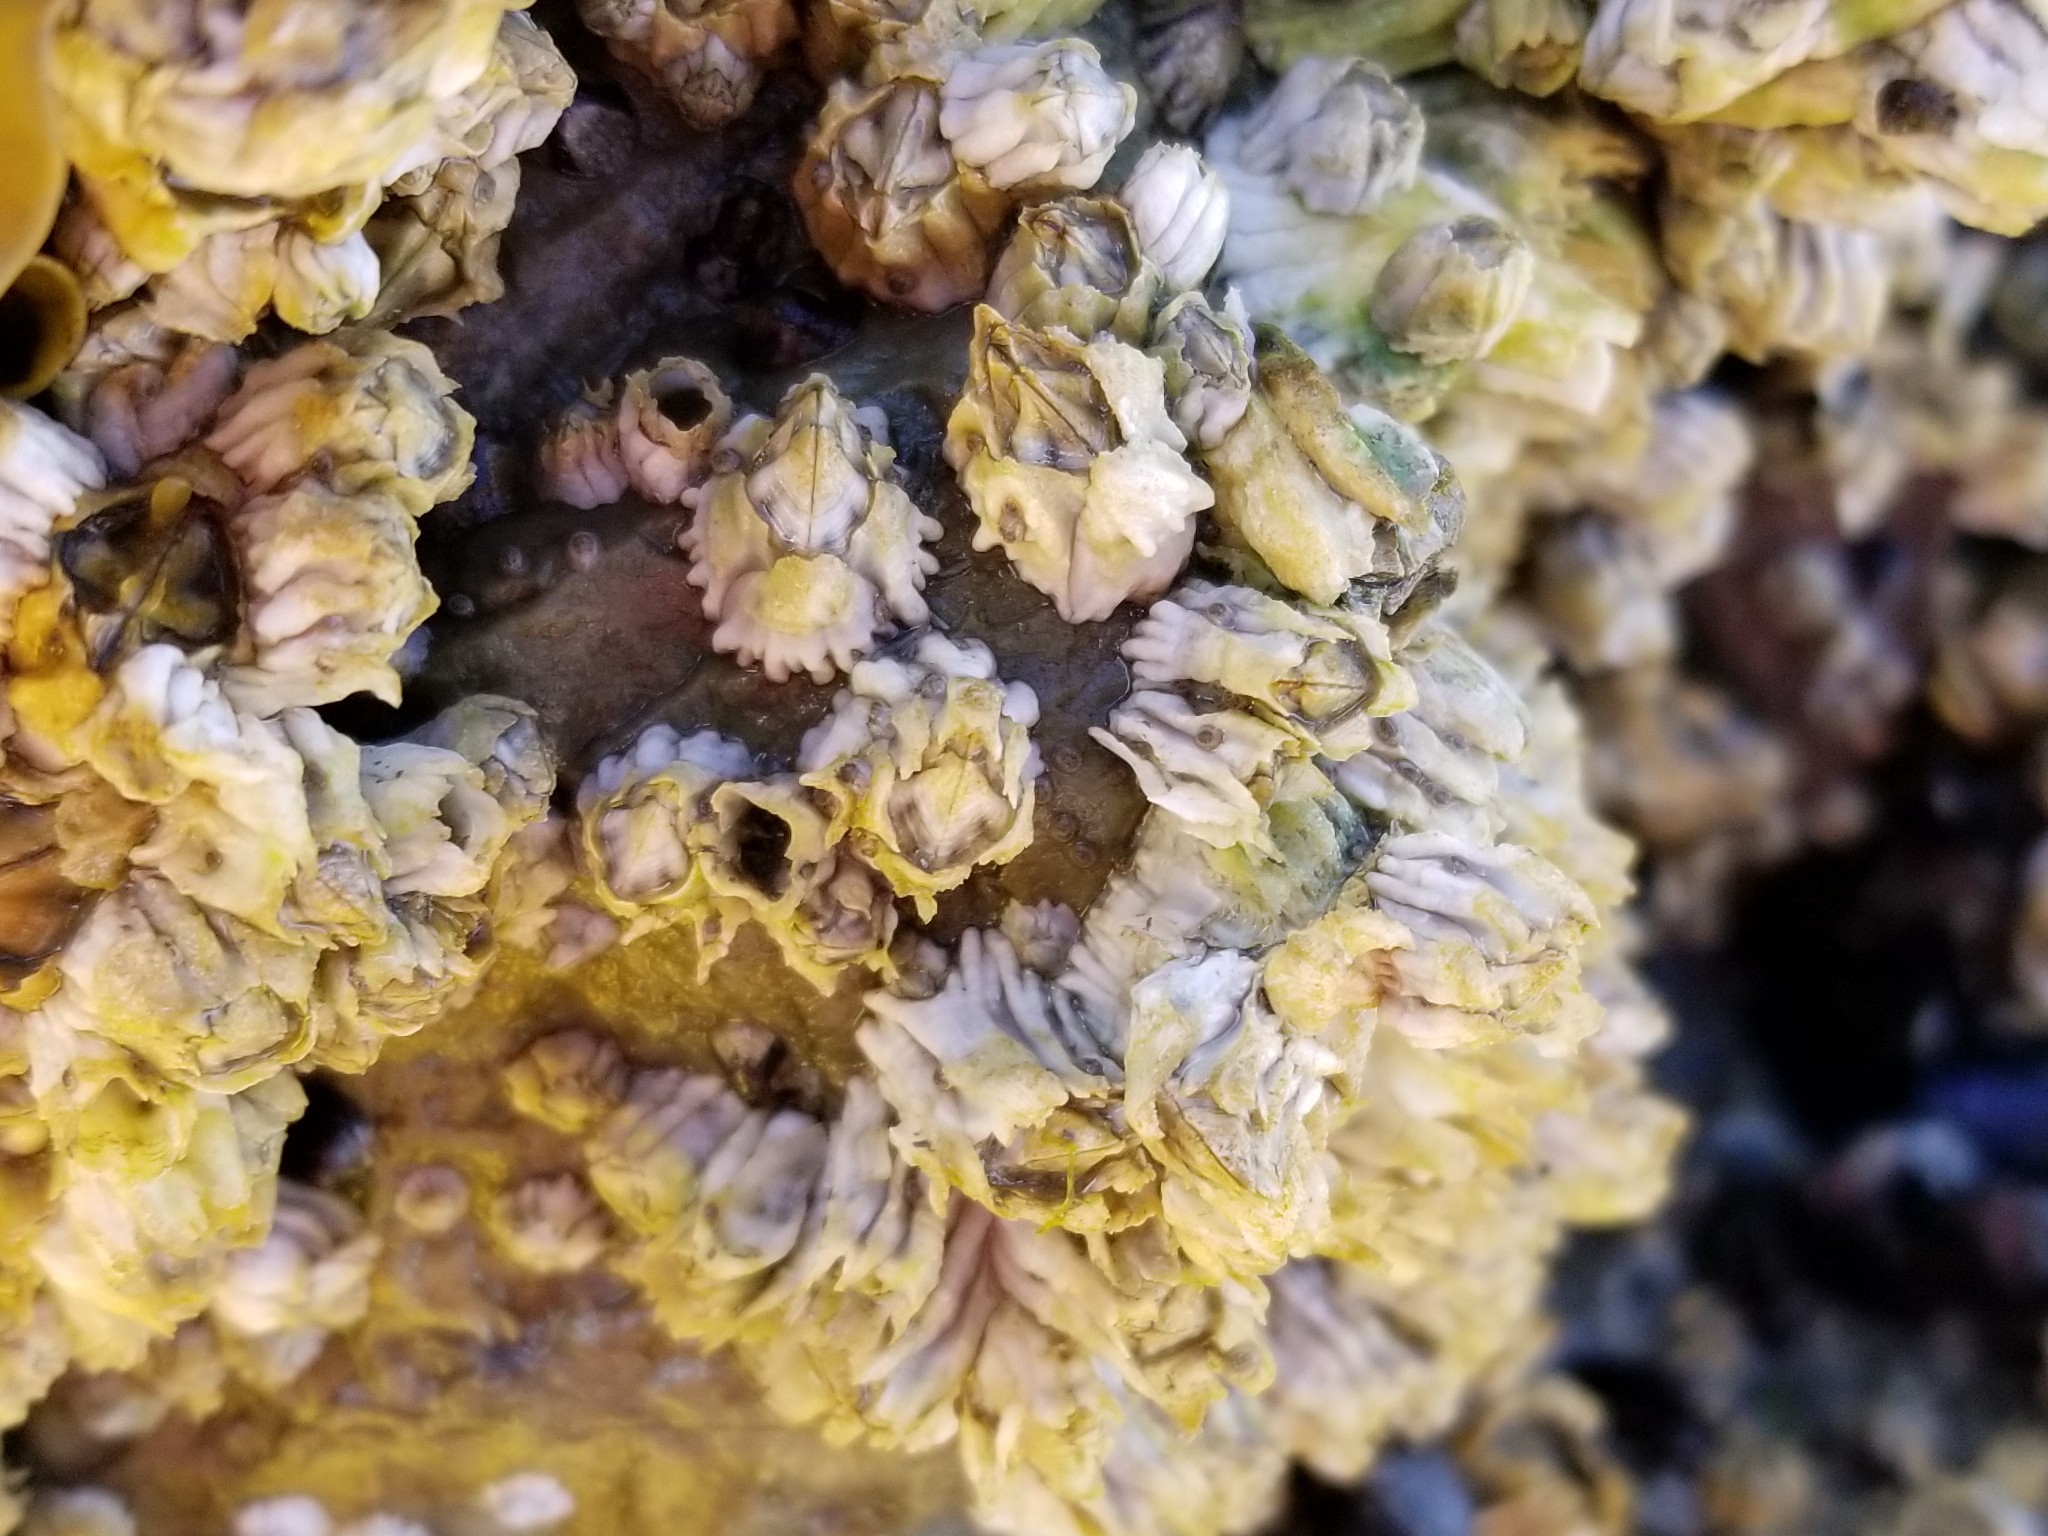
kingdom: Animalia
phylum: Arthropoda
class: Maxillopoda
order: Sessilia
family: Balanidae
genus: Balanus
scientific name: Balanus glandula
